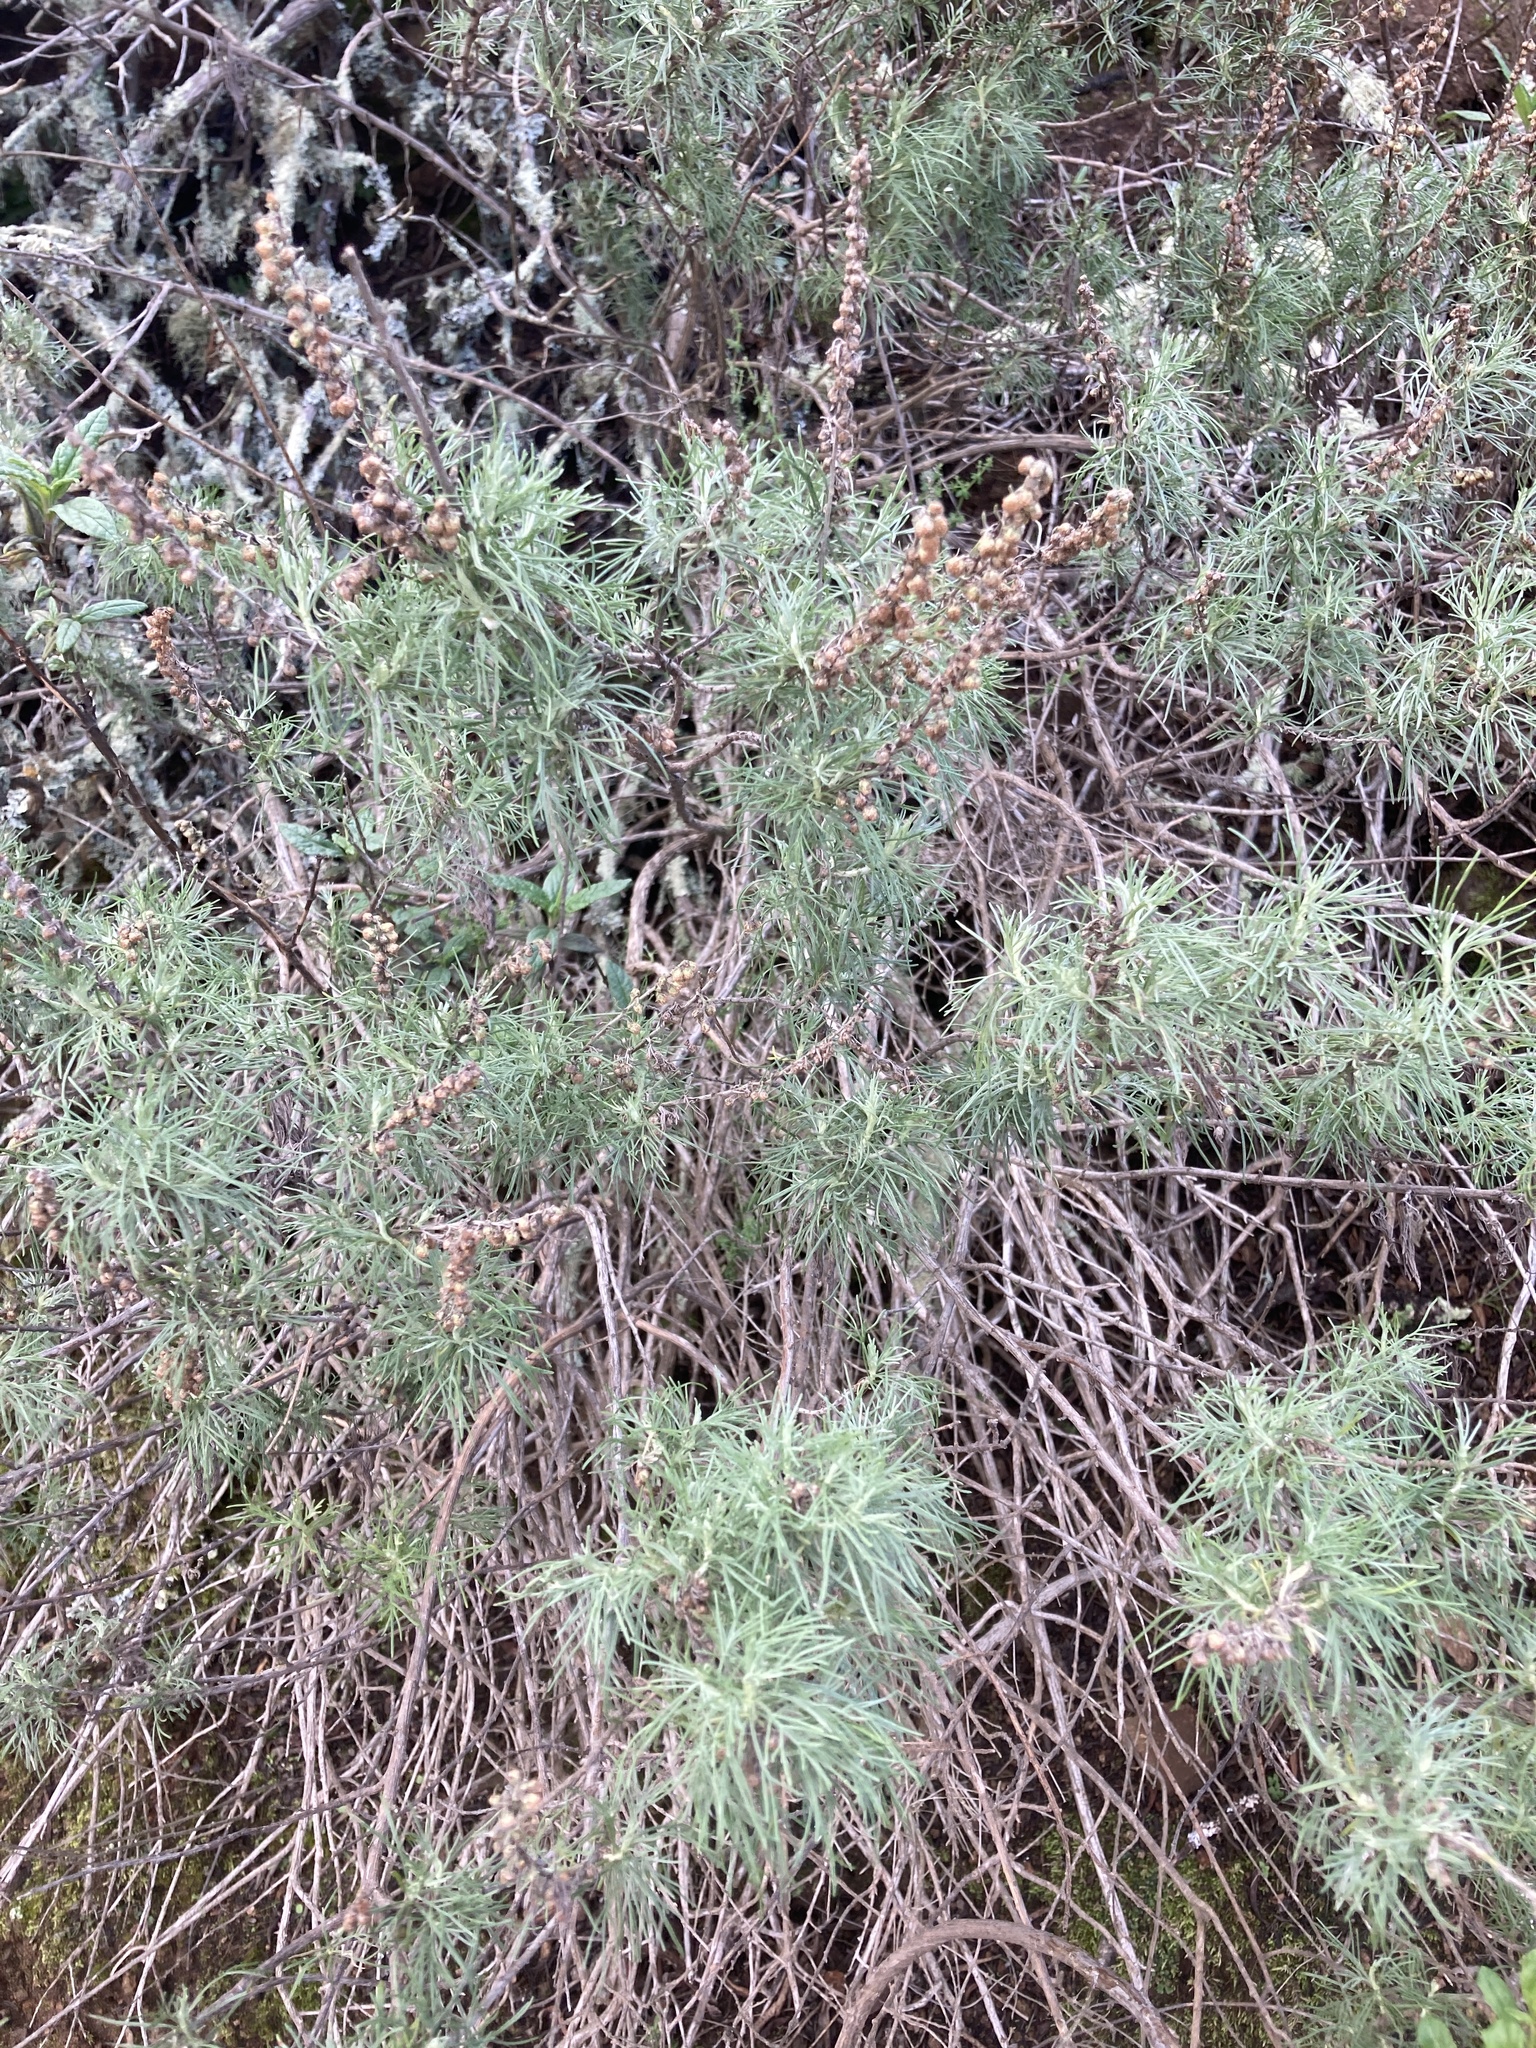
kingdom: Plantae
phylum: Tracheophyta
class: Magnoliopsida
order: Asterales
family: Asteraceae
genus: Artemisia
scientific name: Artemisia californica
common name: California sagebrush
